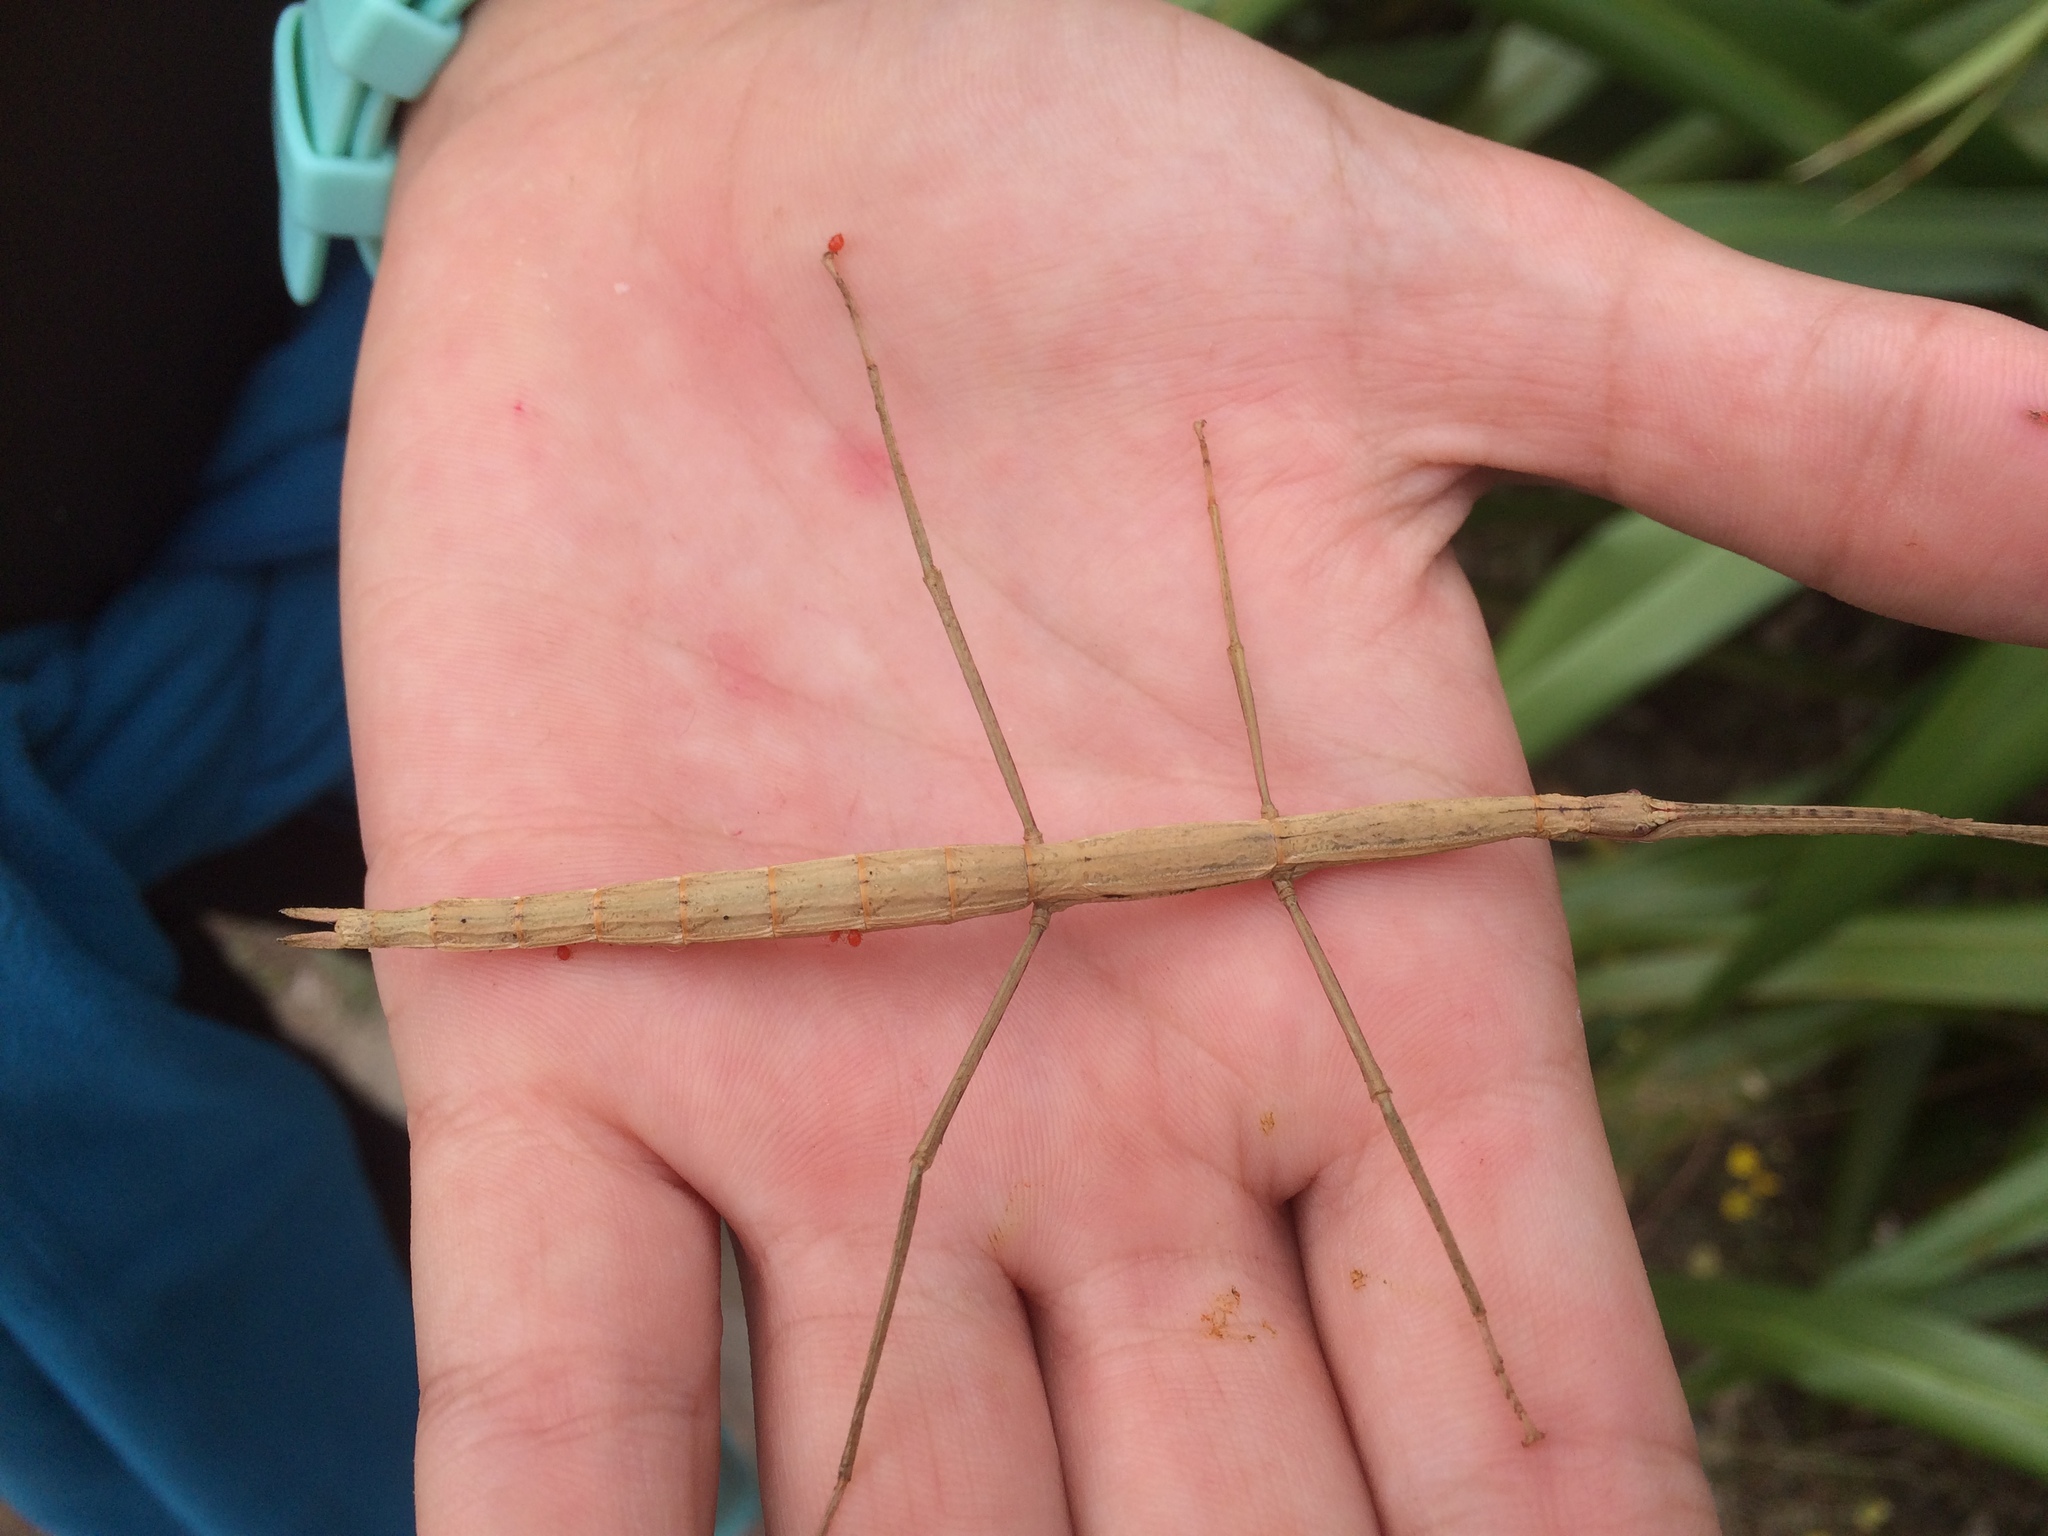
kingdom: Animalia
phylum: Arthropoda
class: Insecta
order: Phasmida
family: Phasmatidae
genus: Clitarchus
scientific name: Clitarchus hookeri
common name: Smooth stick insect
